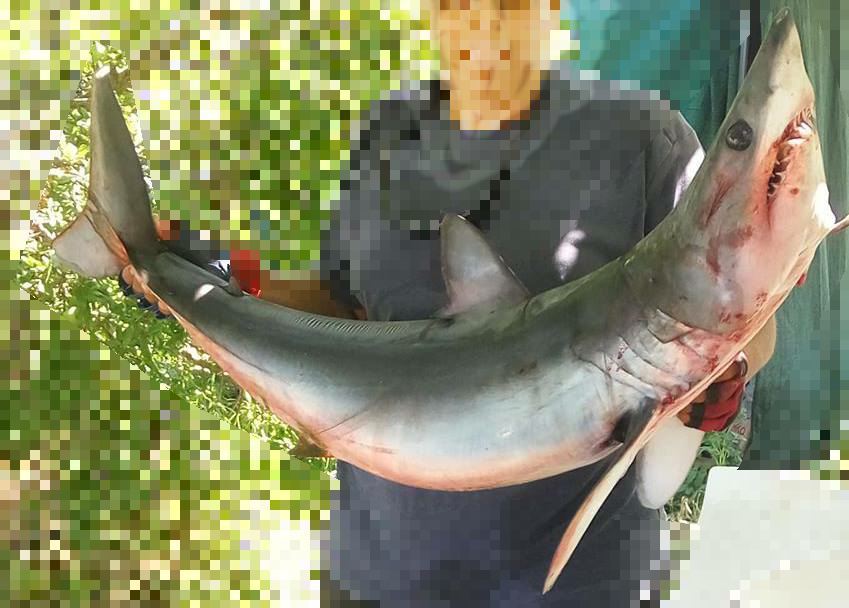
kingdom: Animalia
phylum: Chordata
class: Elasmobranchii
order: Lamniformes
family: Lamnidae
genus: Isurus
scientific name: Isurus oxyrinchus
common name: Shortfin mako
